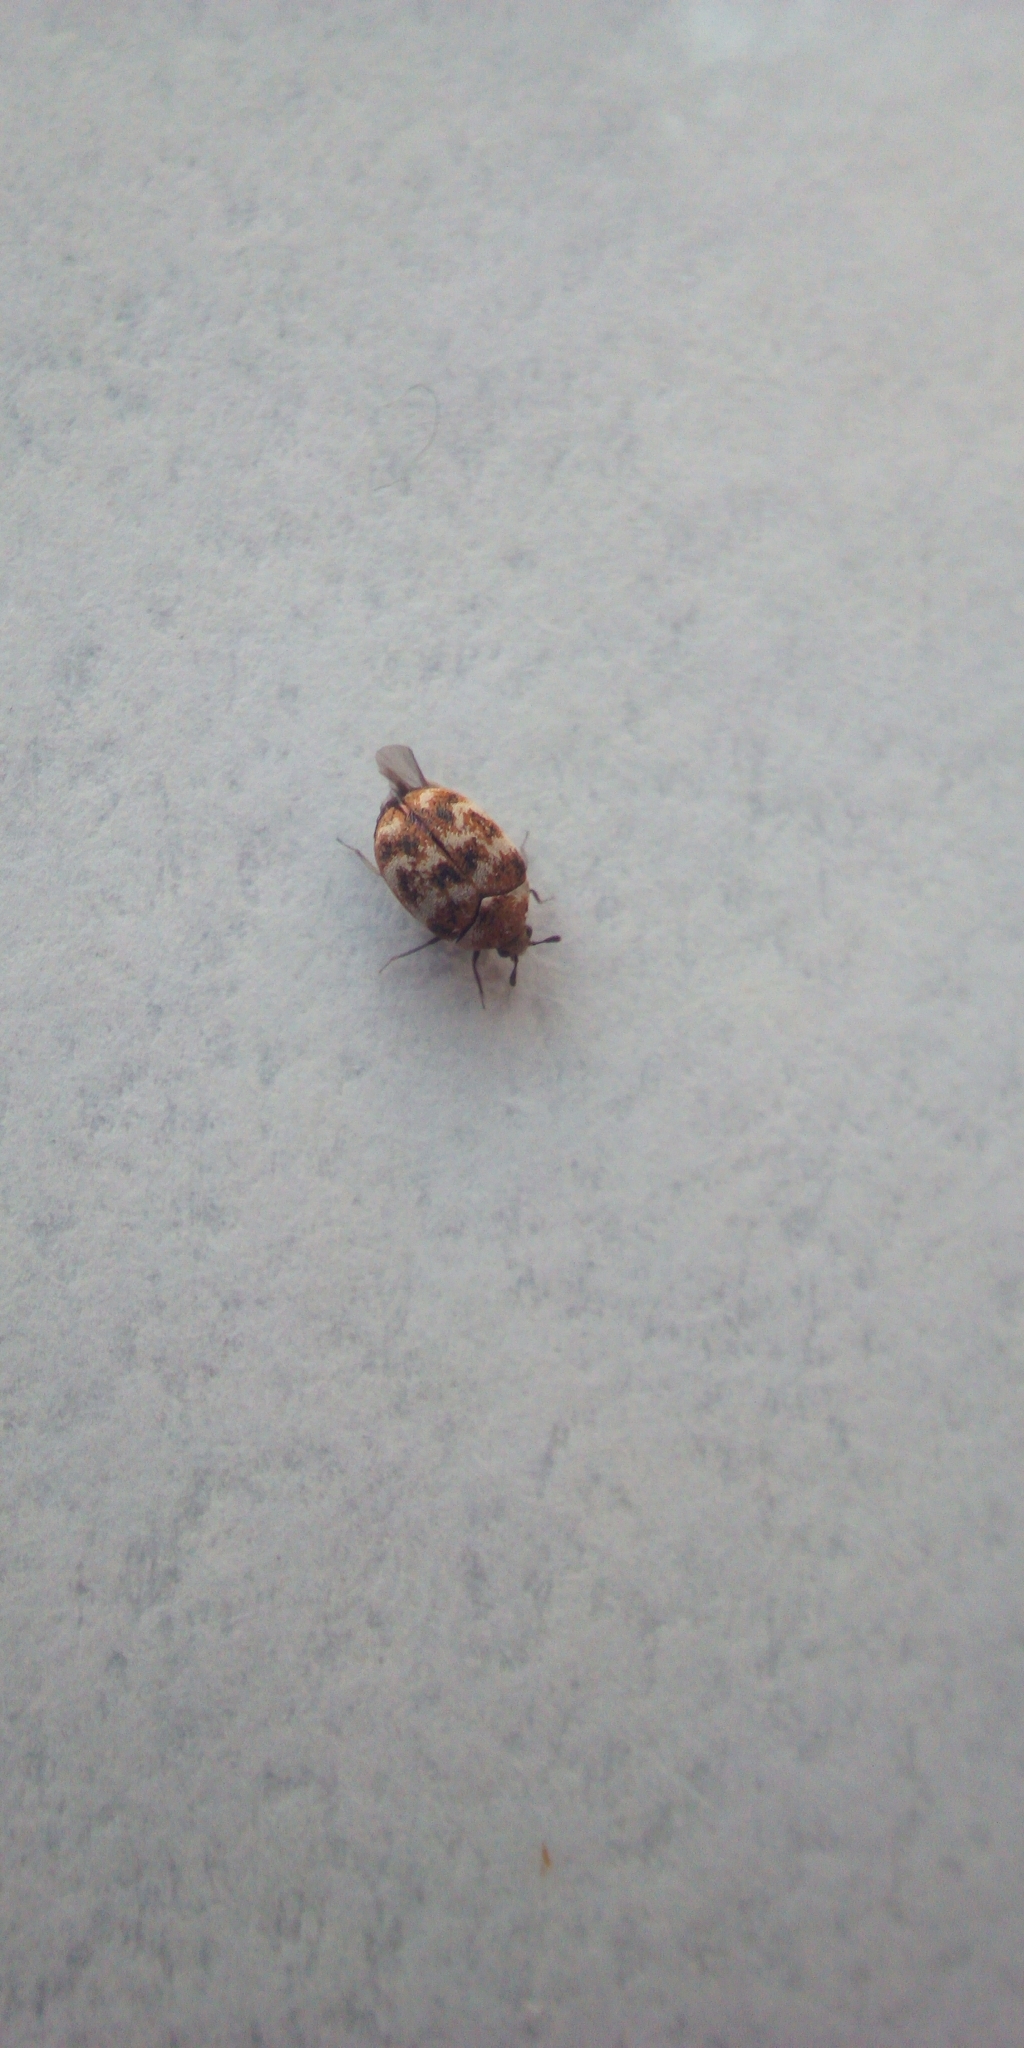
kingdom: Animalia
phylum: Arthropoda
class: Insecta
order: Coleoptera
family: Dermestidae
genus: Anthrenus
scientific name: Anthrenus verbasci
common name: Varied carpet beetle
